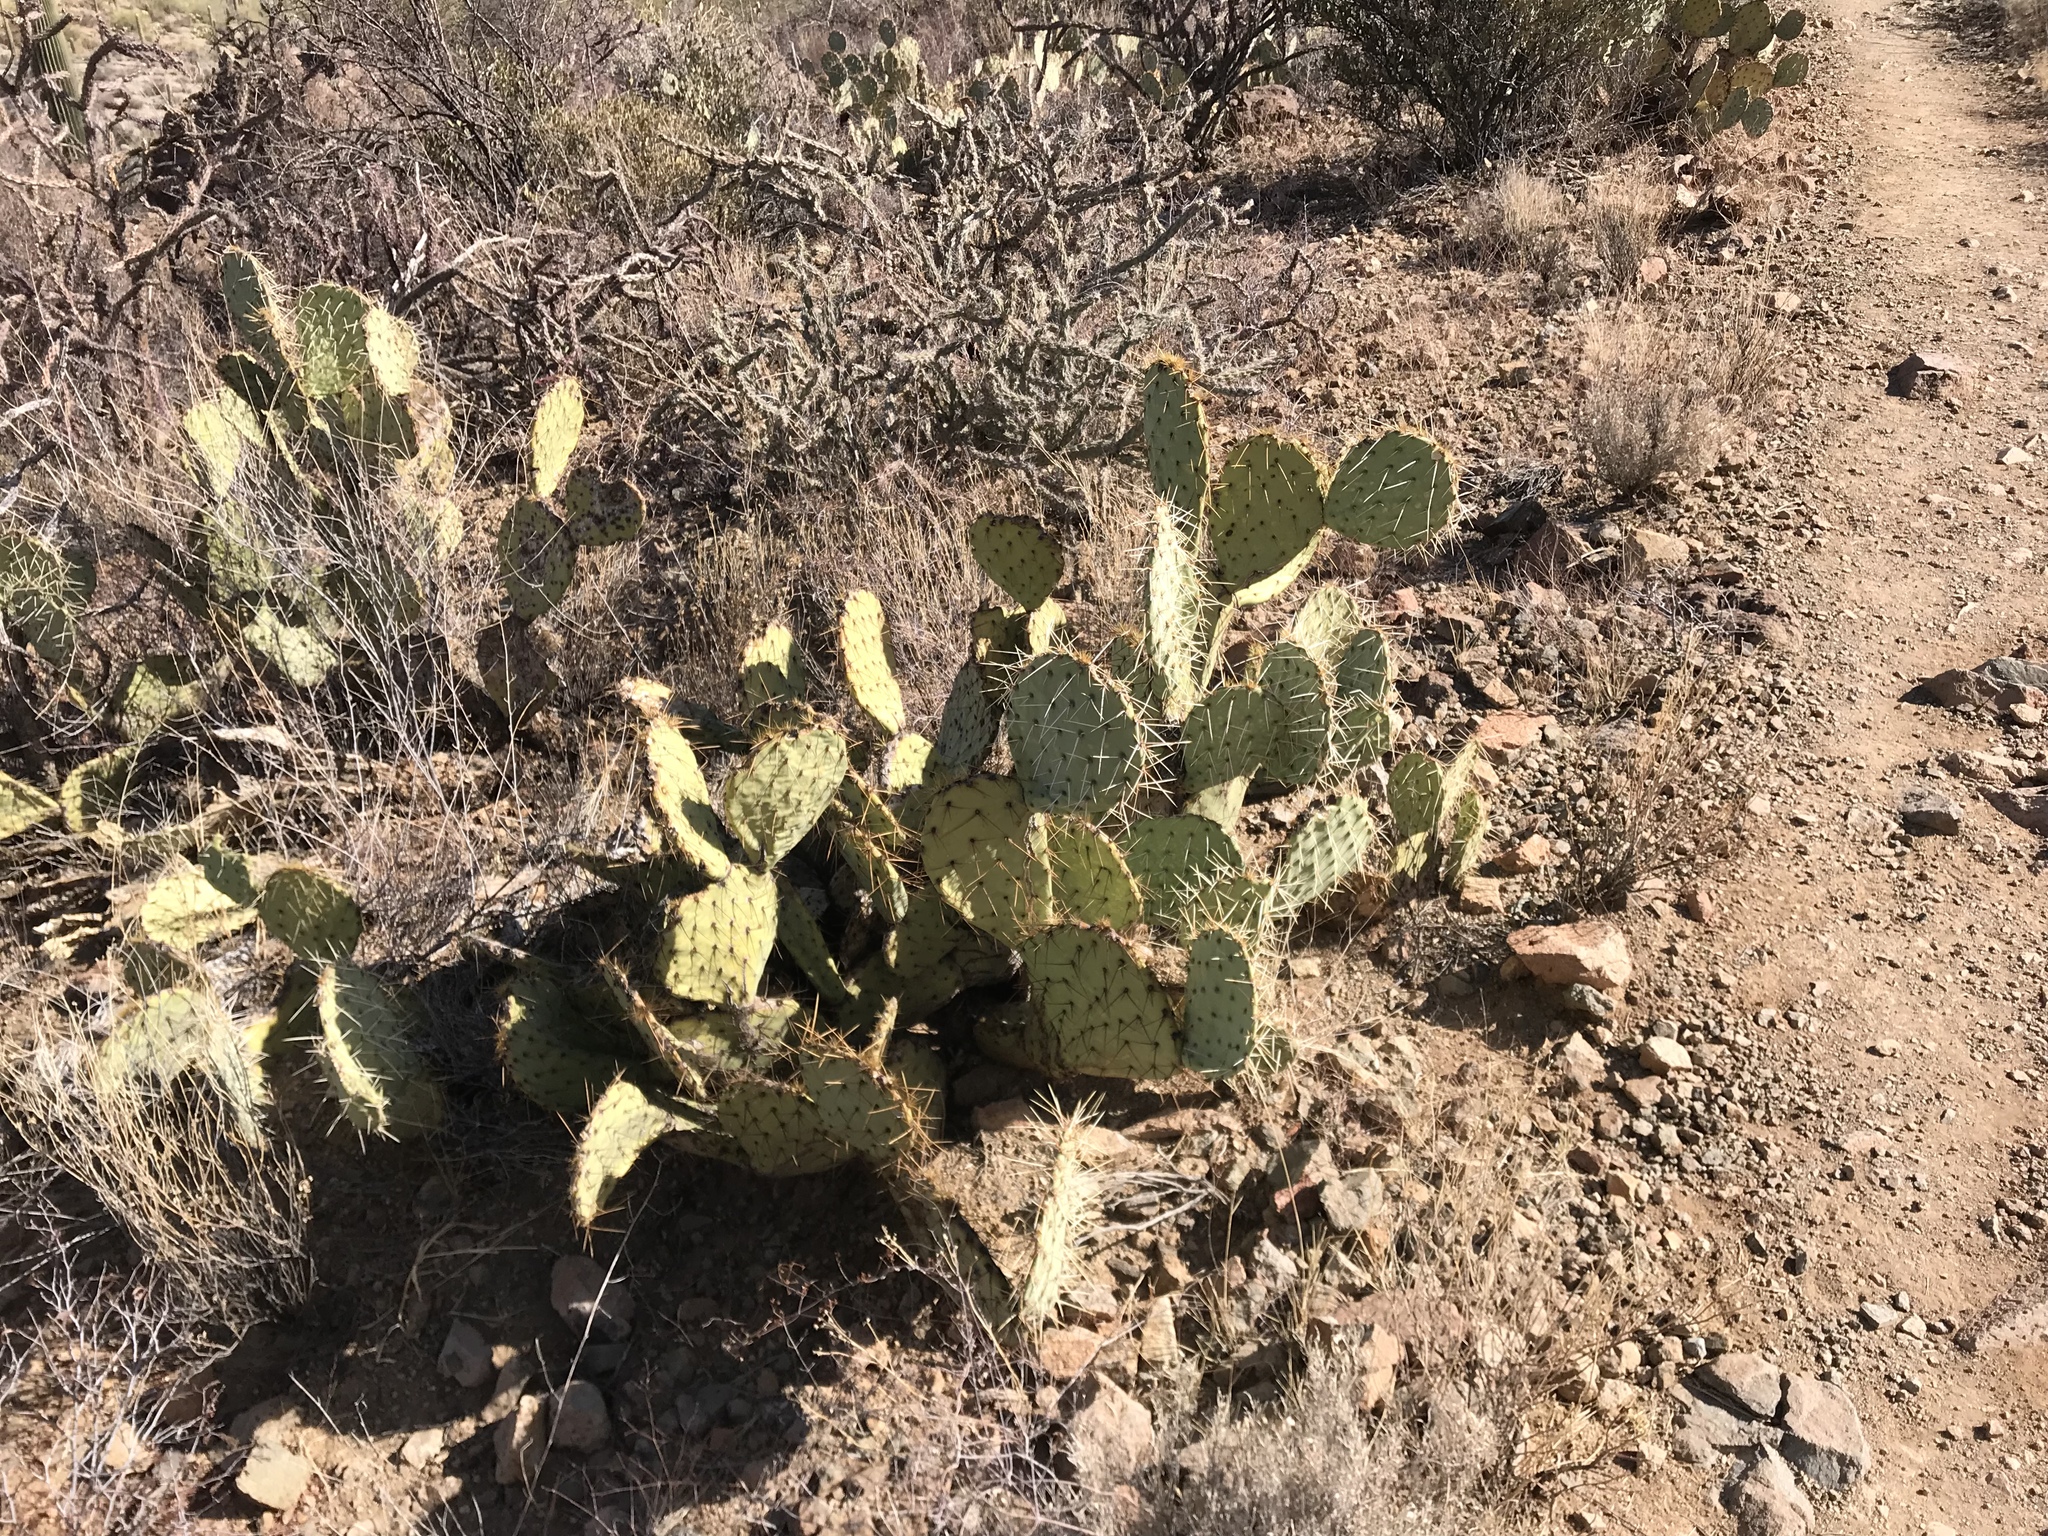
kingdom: Plantae
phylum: Tracheophyta
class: Magnoliopsida
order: Caryophyllales
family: Cactaceae
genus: Opuntia
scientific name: Opuntia phaeacantha
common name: New mexico prickly-pear
